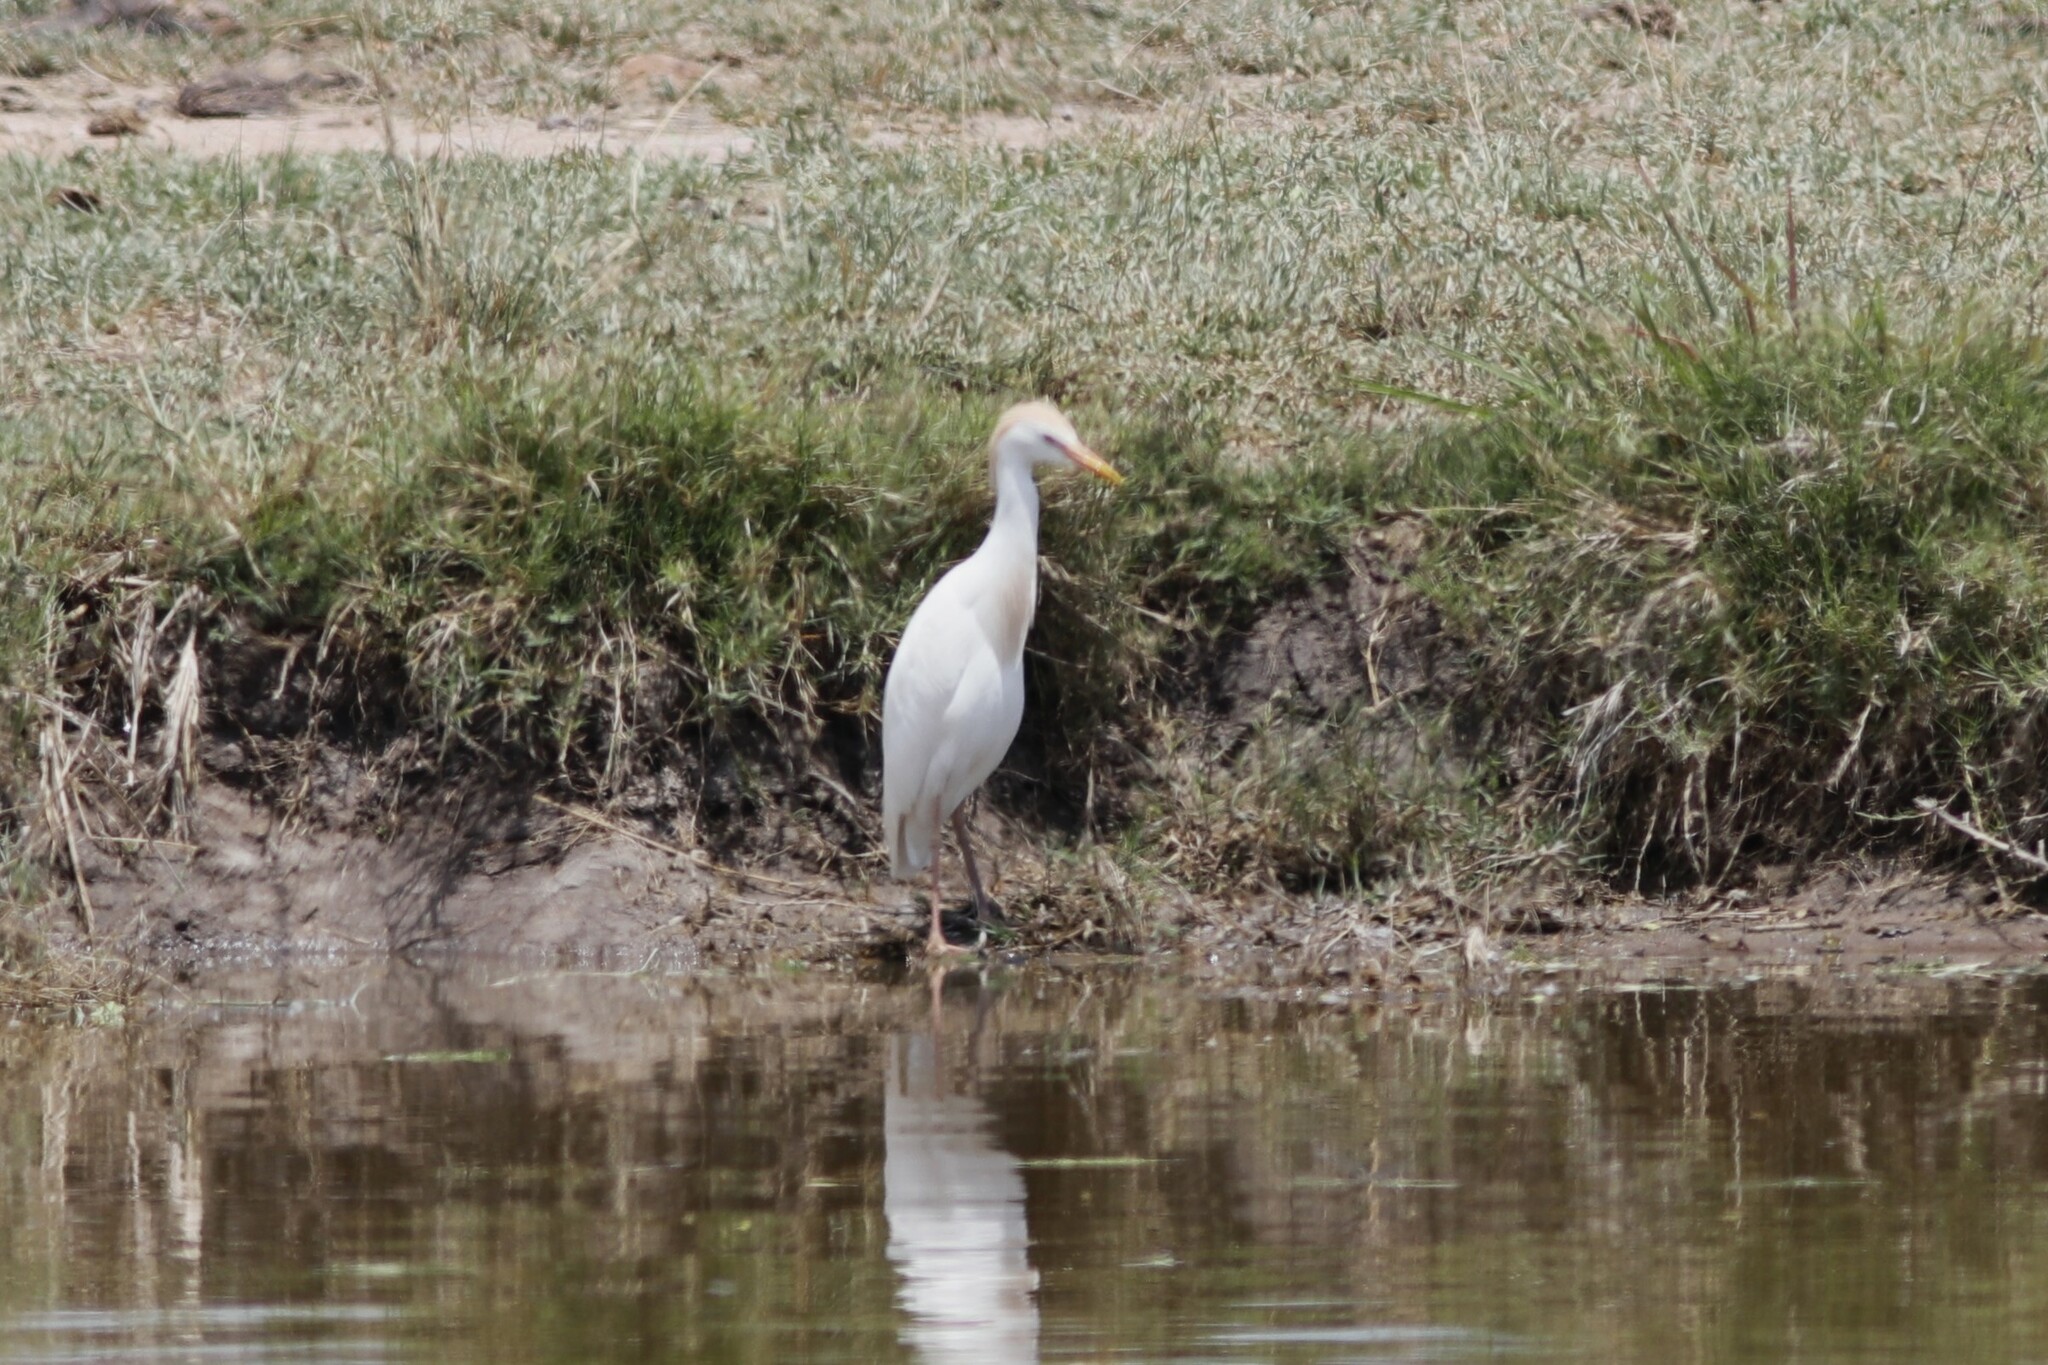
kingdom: Animalia
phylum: Chordata
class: Aves
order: Pelecaniformes
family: Ardeidae
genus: Bubulcus
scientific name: Bubulcus ibis
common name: Cattle egret
